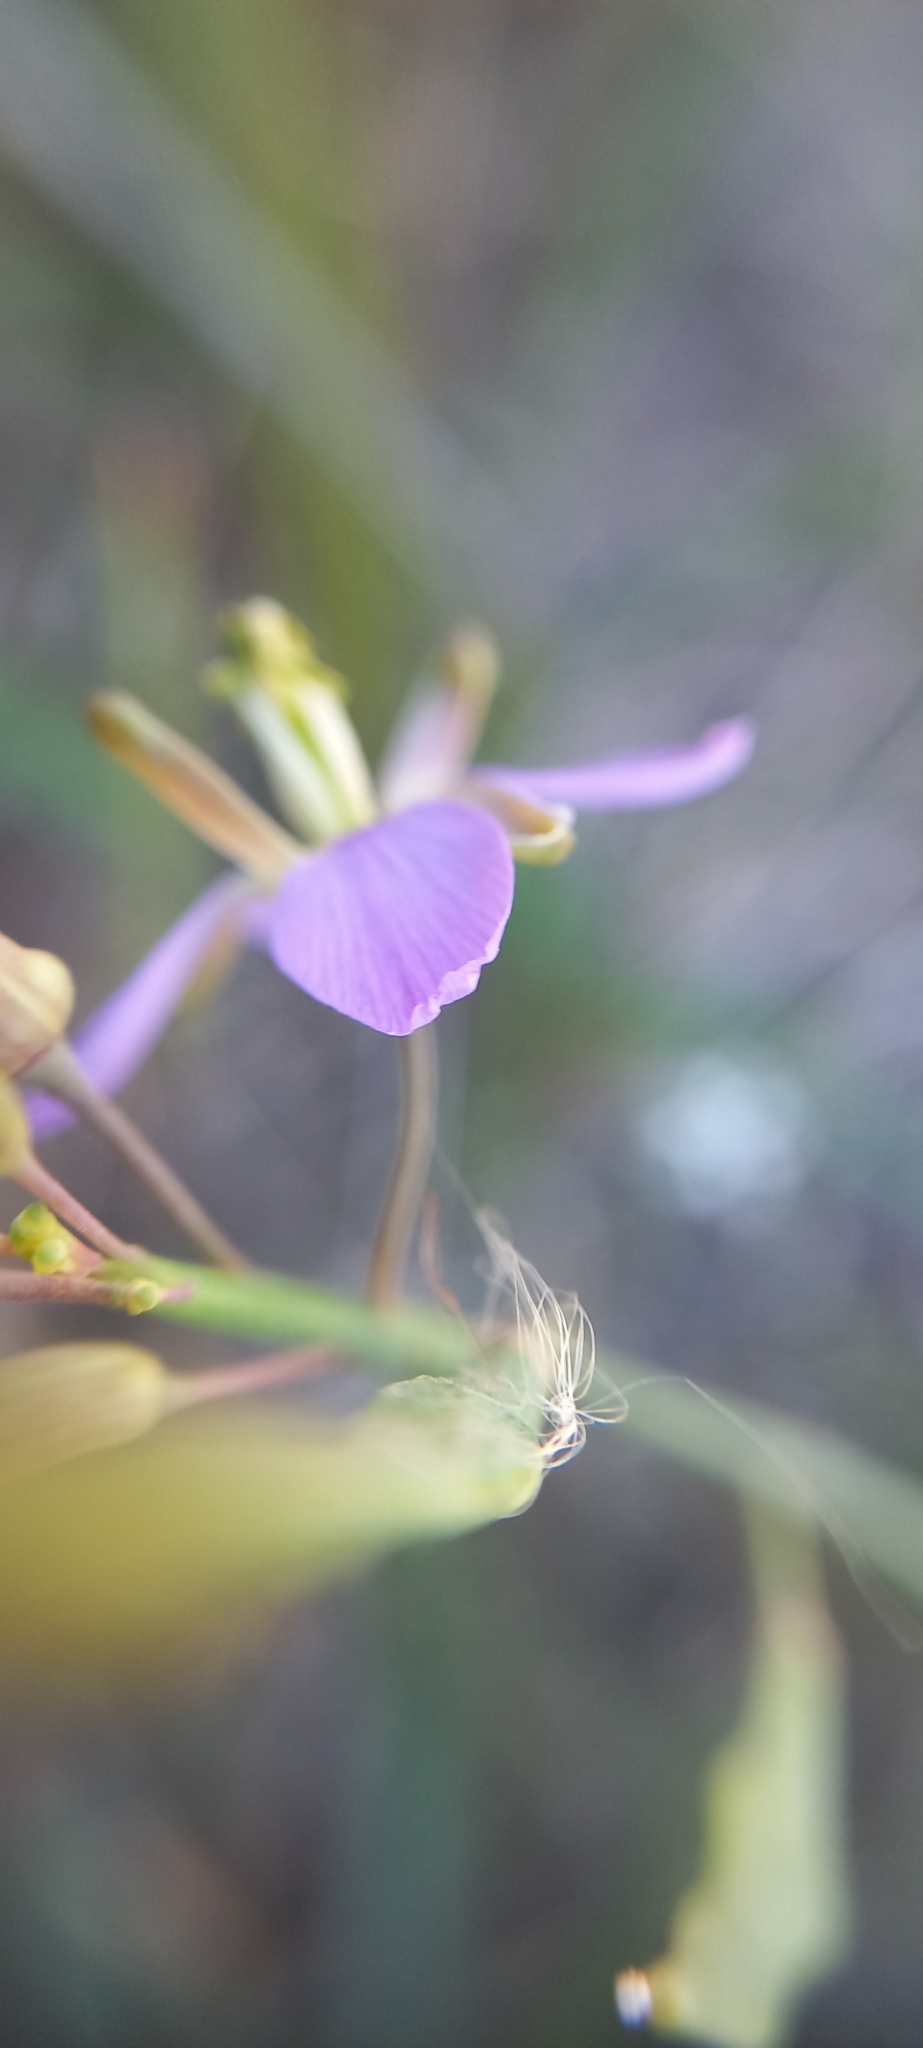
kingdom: Plantae
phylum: Tracheophyta
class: Magnoliopsida
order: Brassicales
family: Brassicaceae
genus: Heliophila
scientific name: Heliophila linearis
